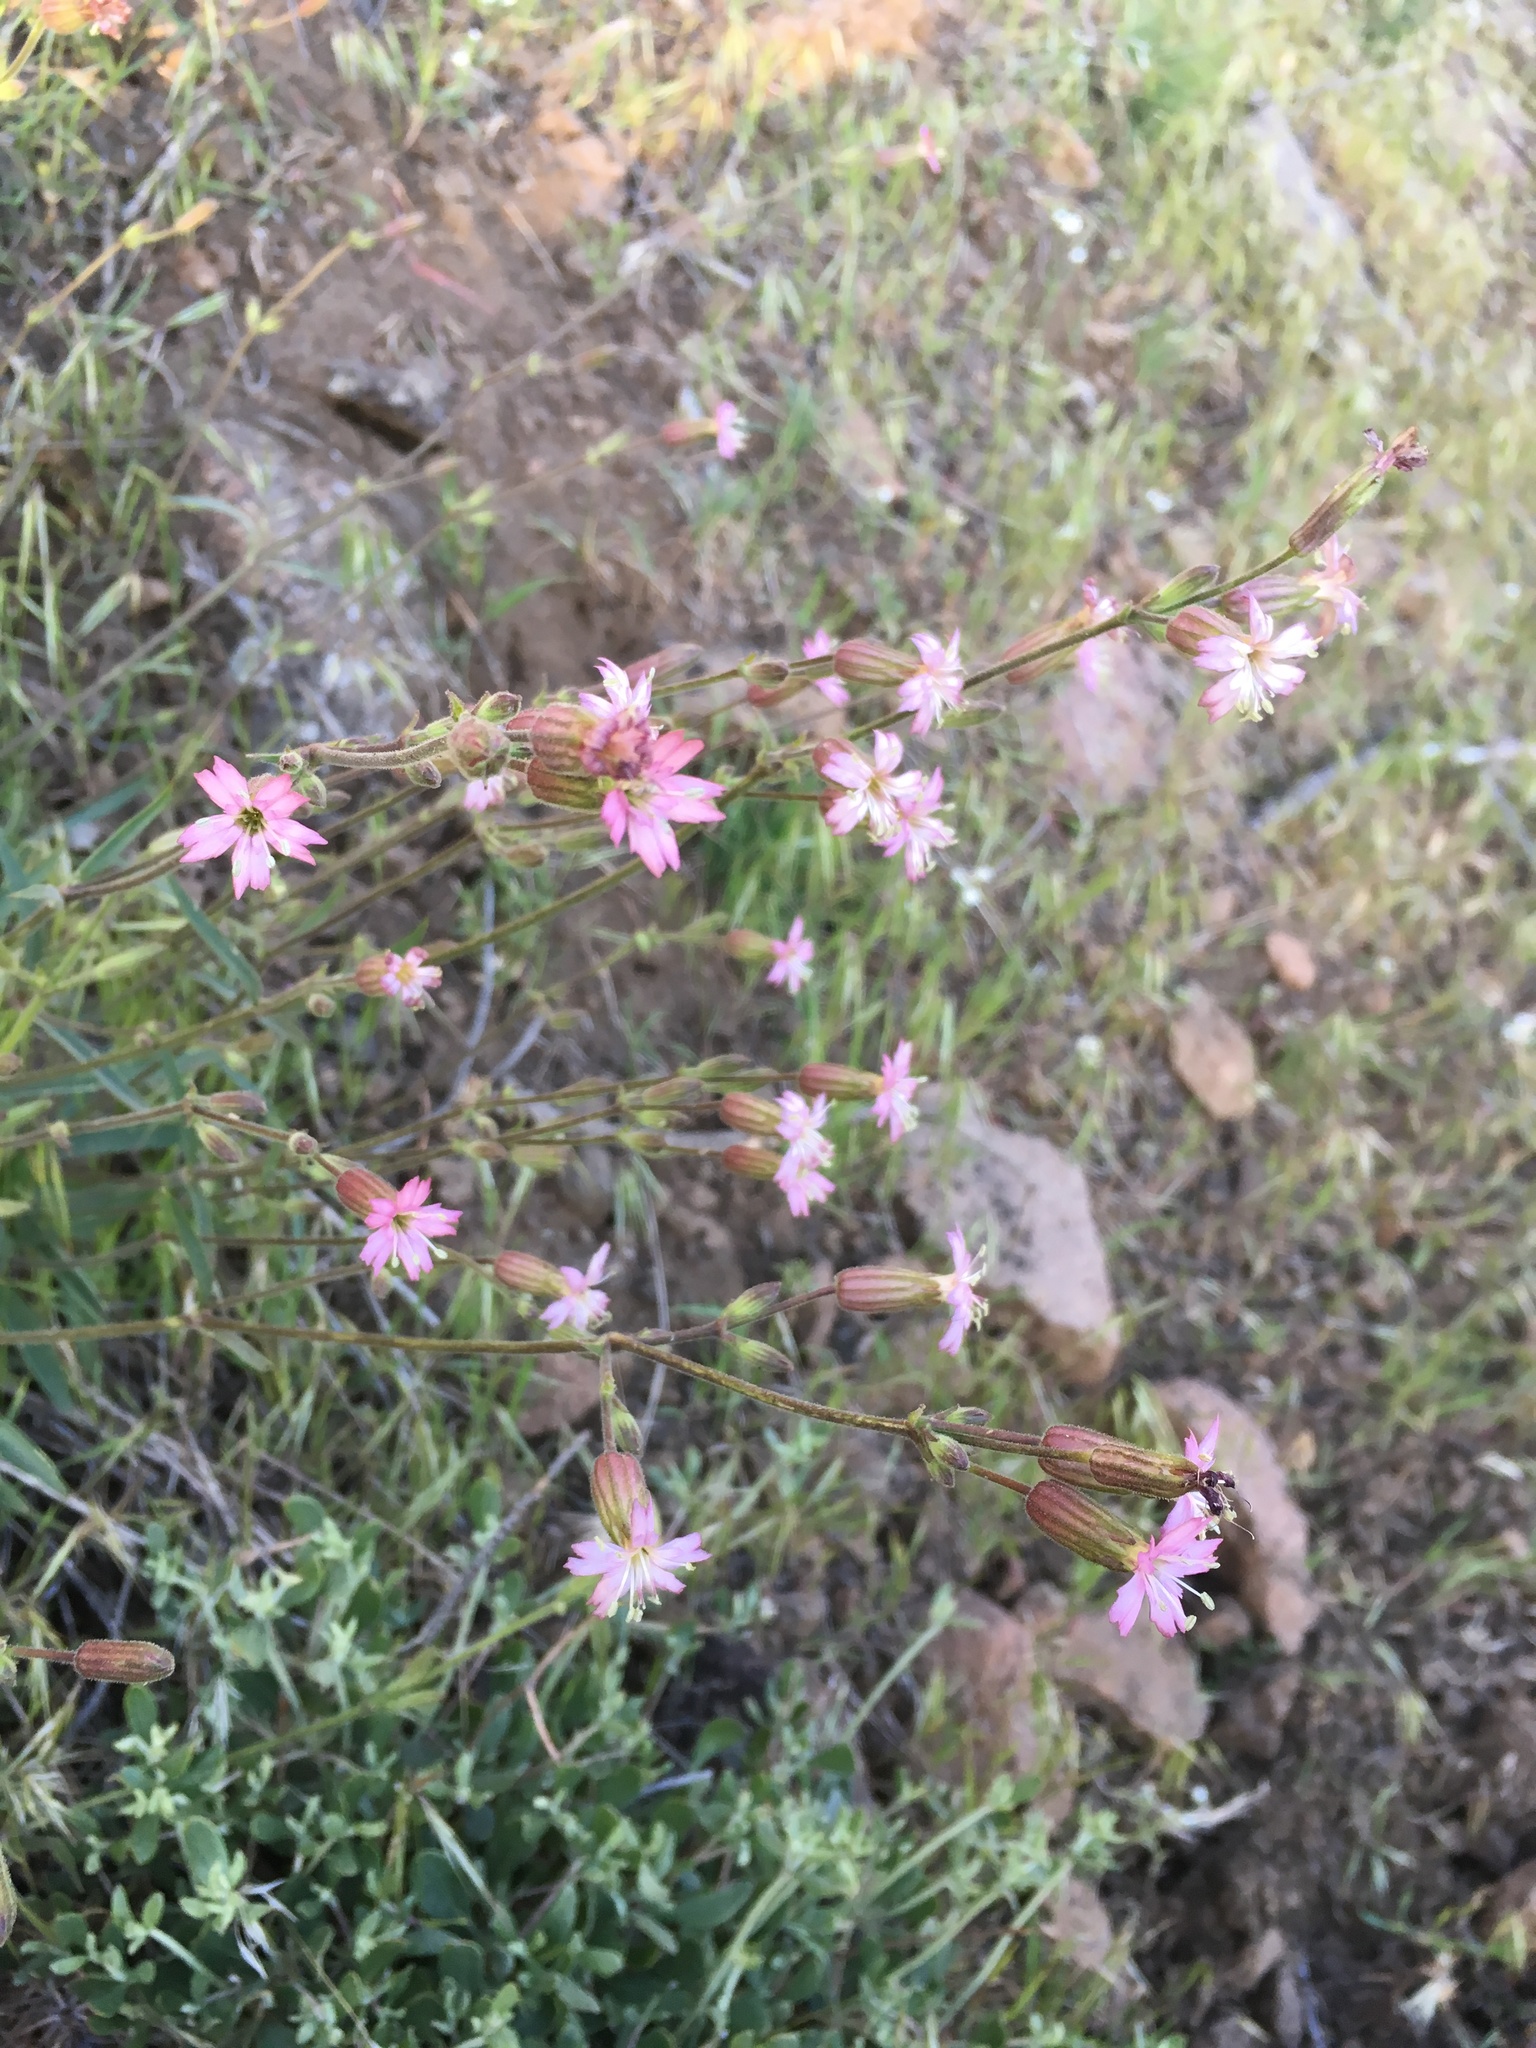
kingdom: Plantae
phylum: Tracheophyta
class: Magnoliopsida
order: Caryophyllales
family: Caryophyllaceae
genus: Silene
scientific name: Silene verecunda
